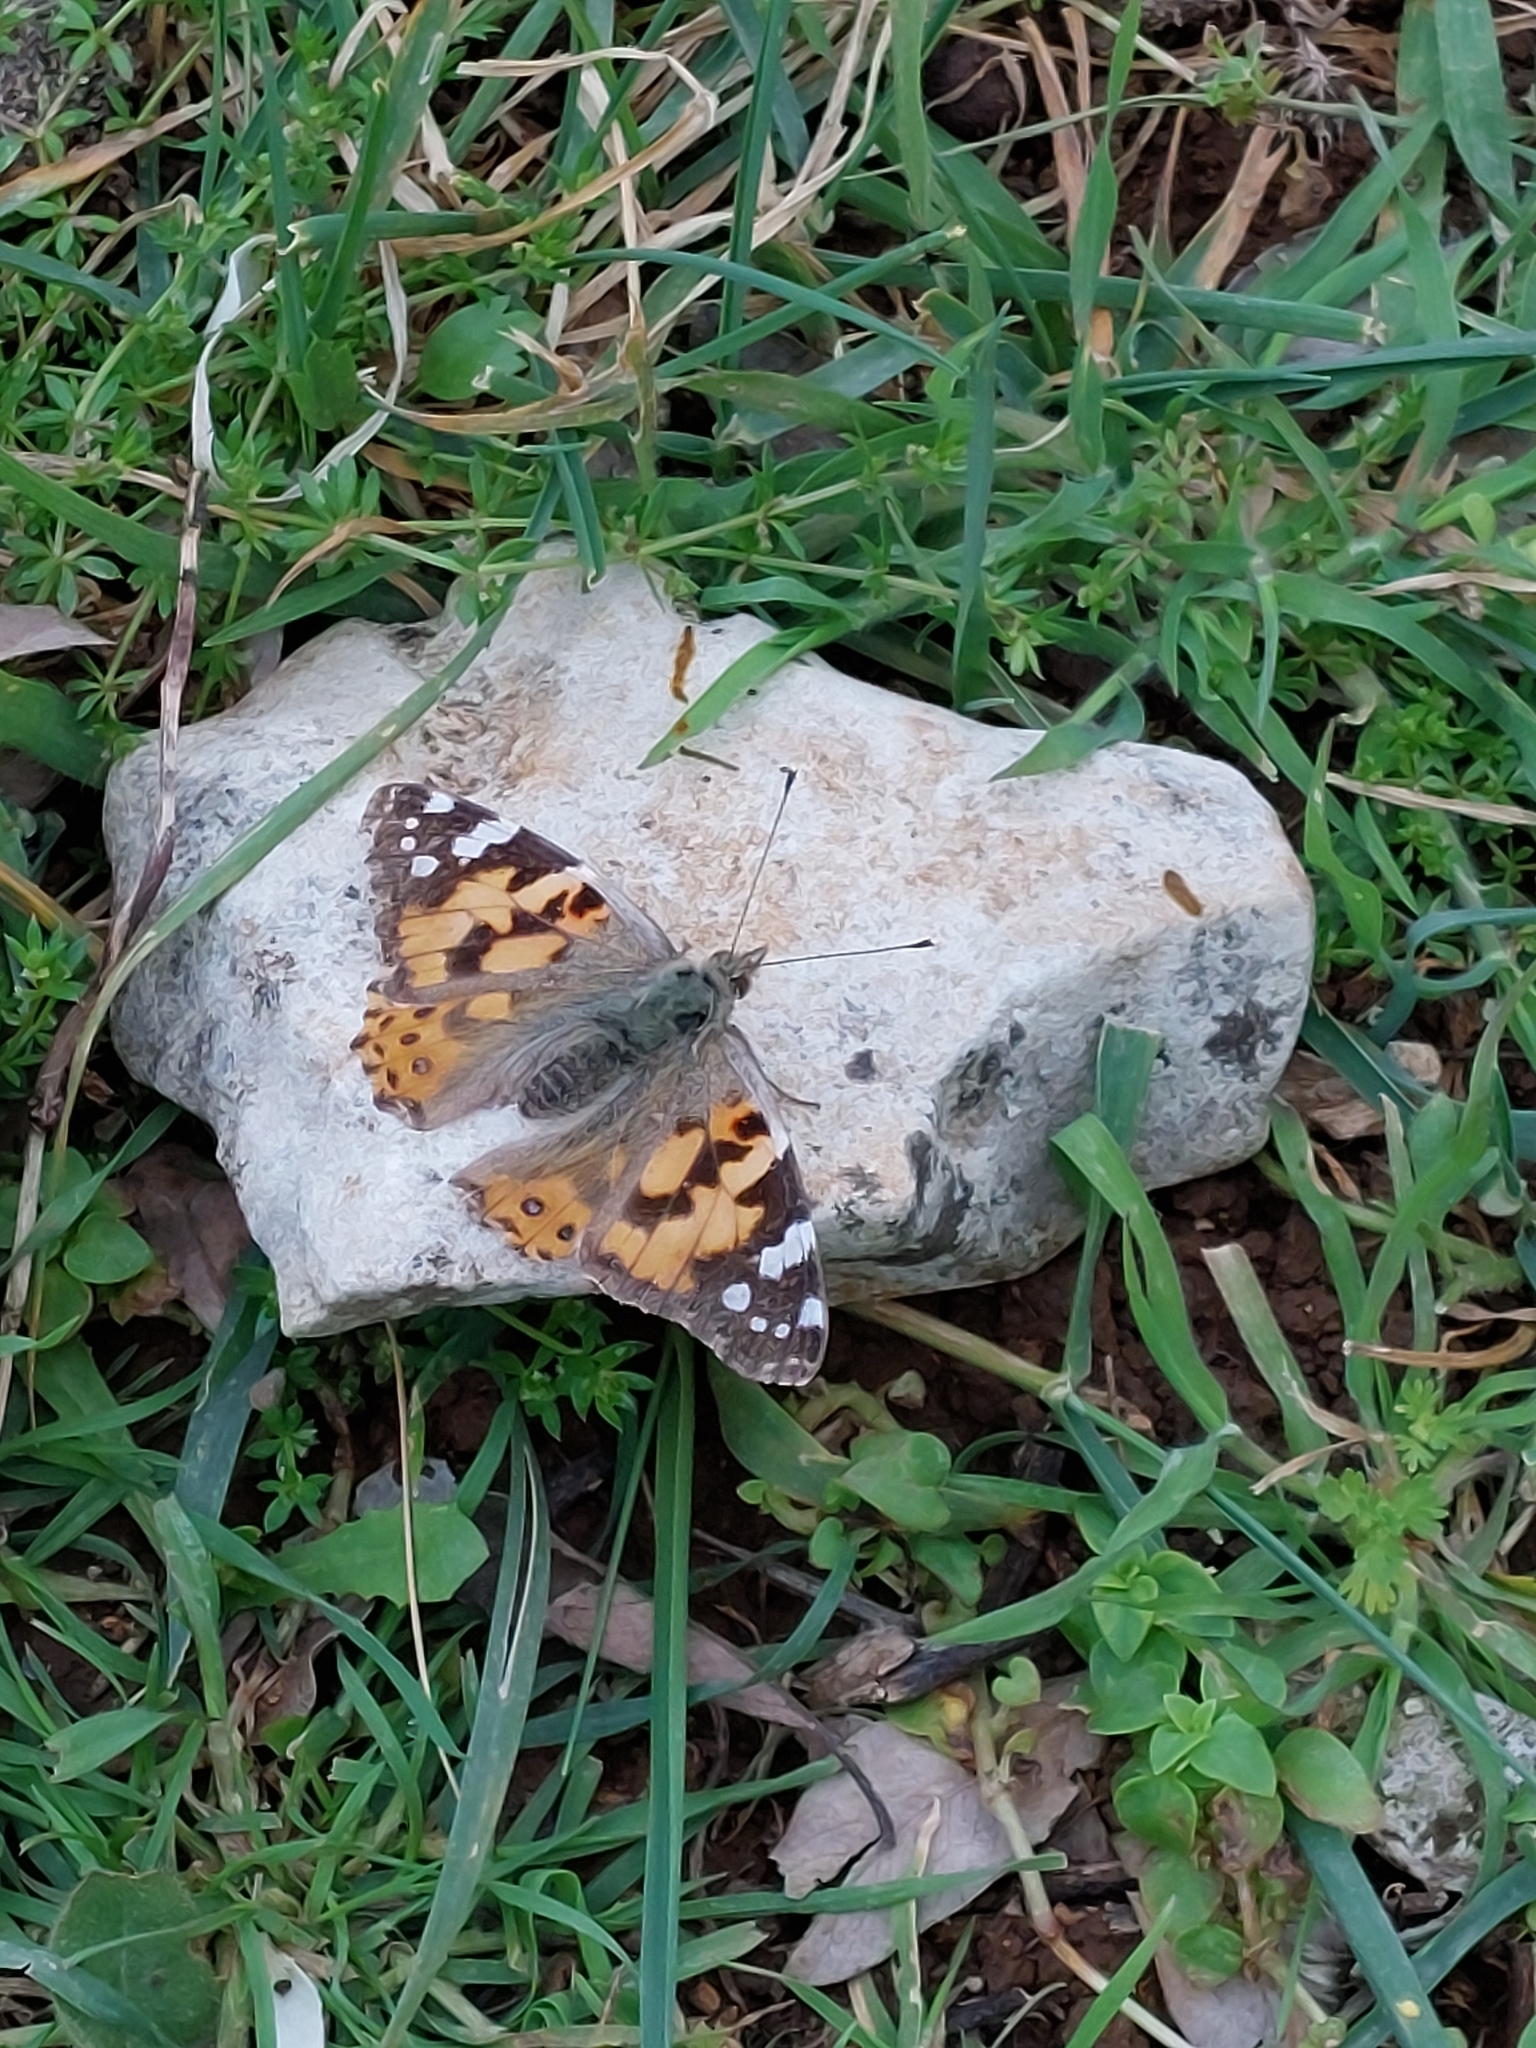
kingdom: Animalia
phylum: Arthropoda
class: Insecta
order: Lepidoptera
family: Nymphalidae
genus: Vanessa
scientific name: Vanessa cardui
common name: Painted lady
